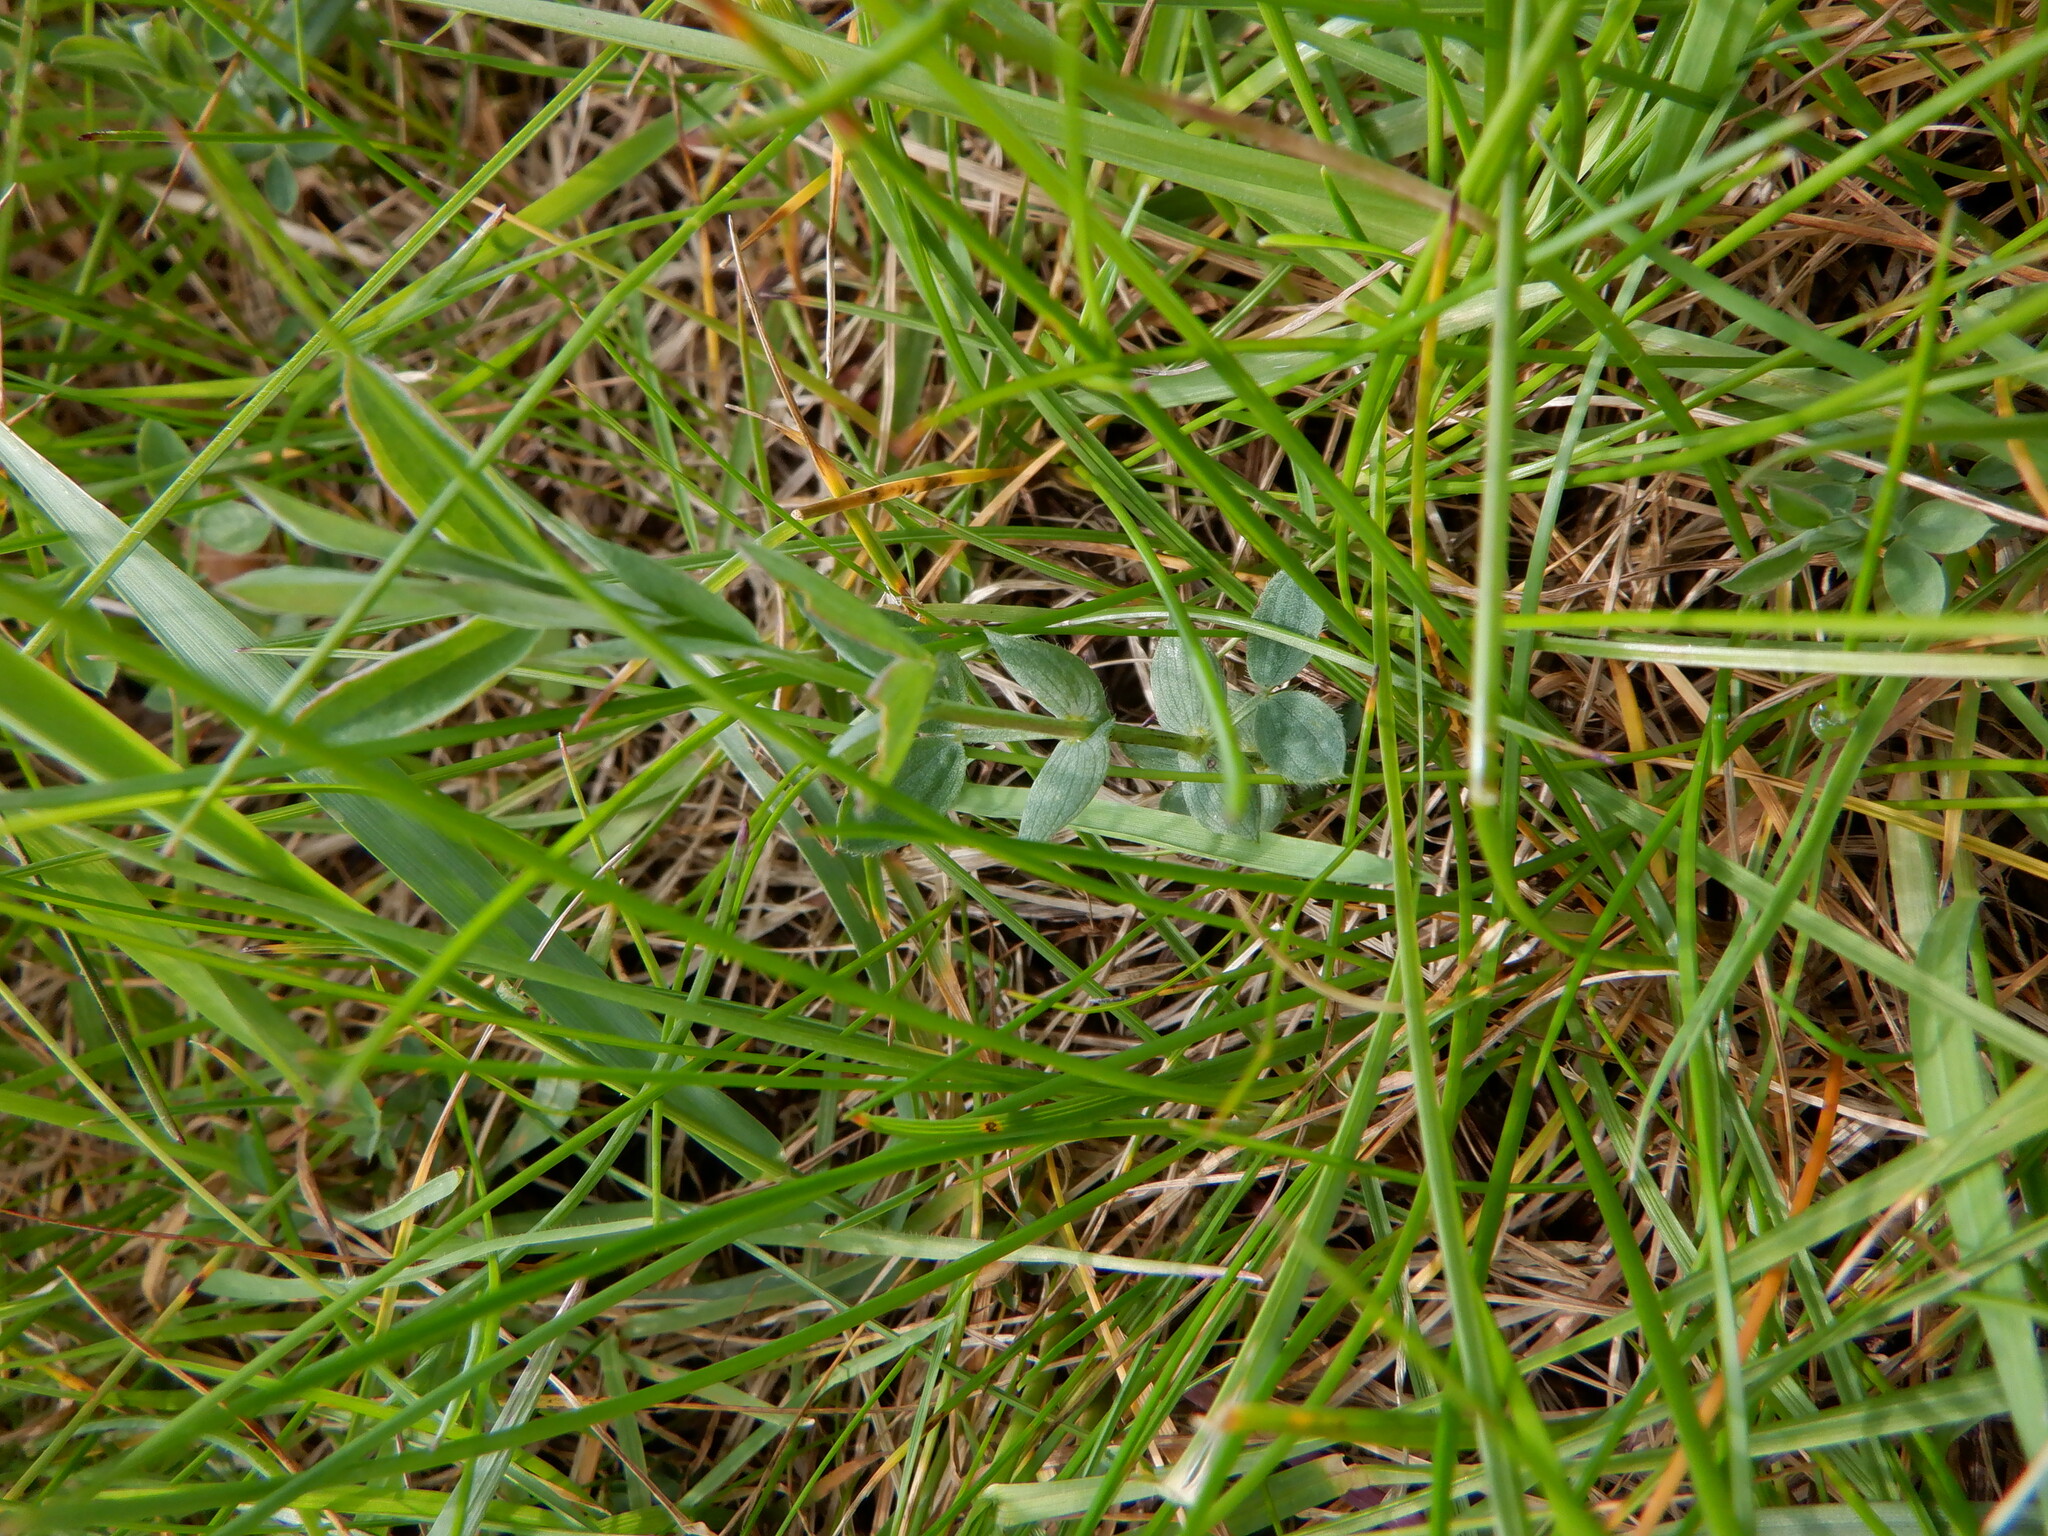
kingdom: Plantae
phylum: Tracheophyta
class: Magnoliopsida
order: Fabales
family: Fabaceae
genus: Lathyrus
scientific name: Lathyrus pratensis
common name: Meadow vetchling
